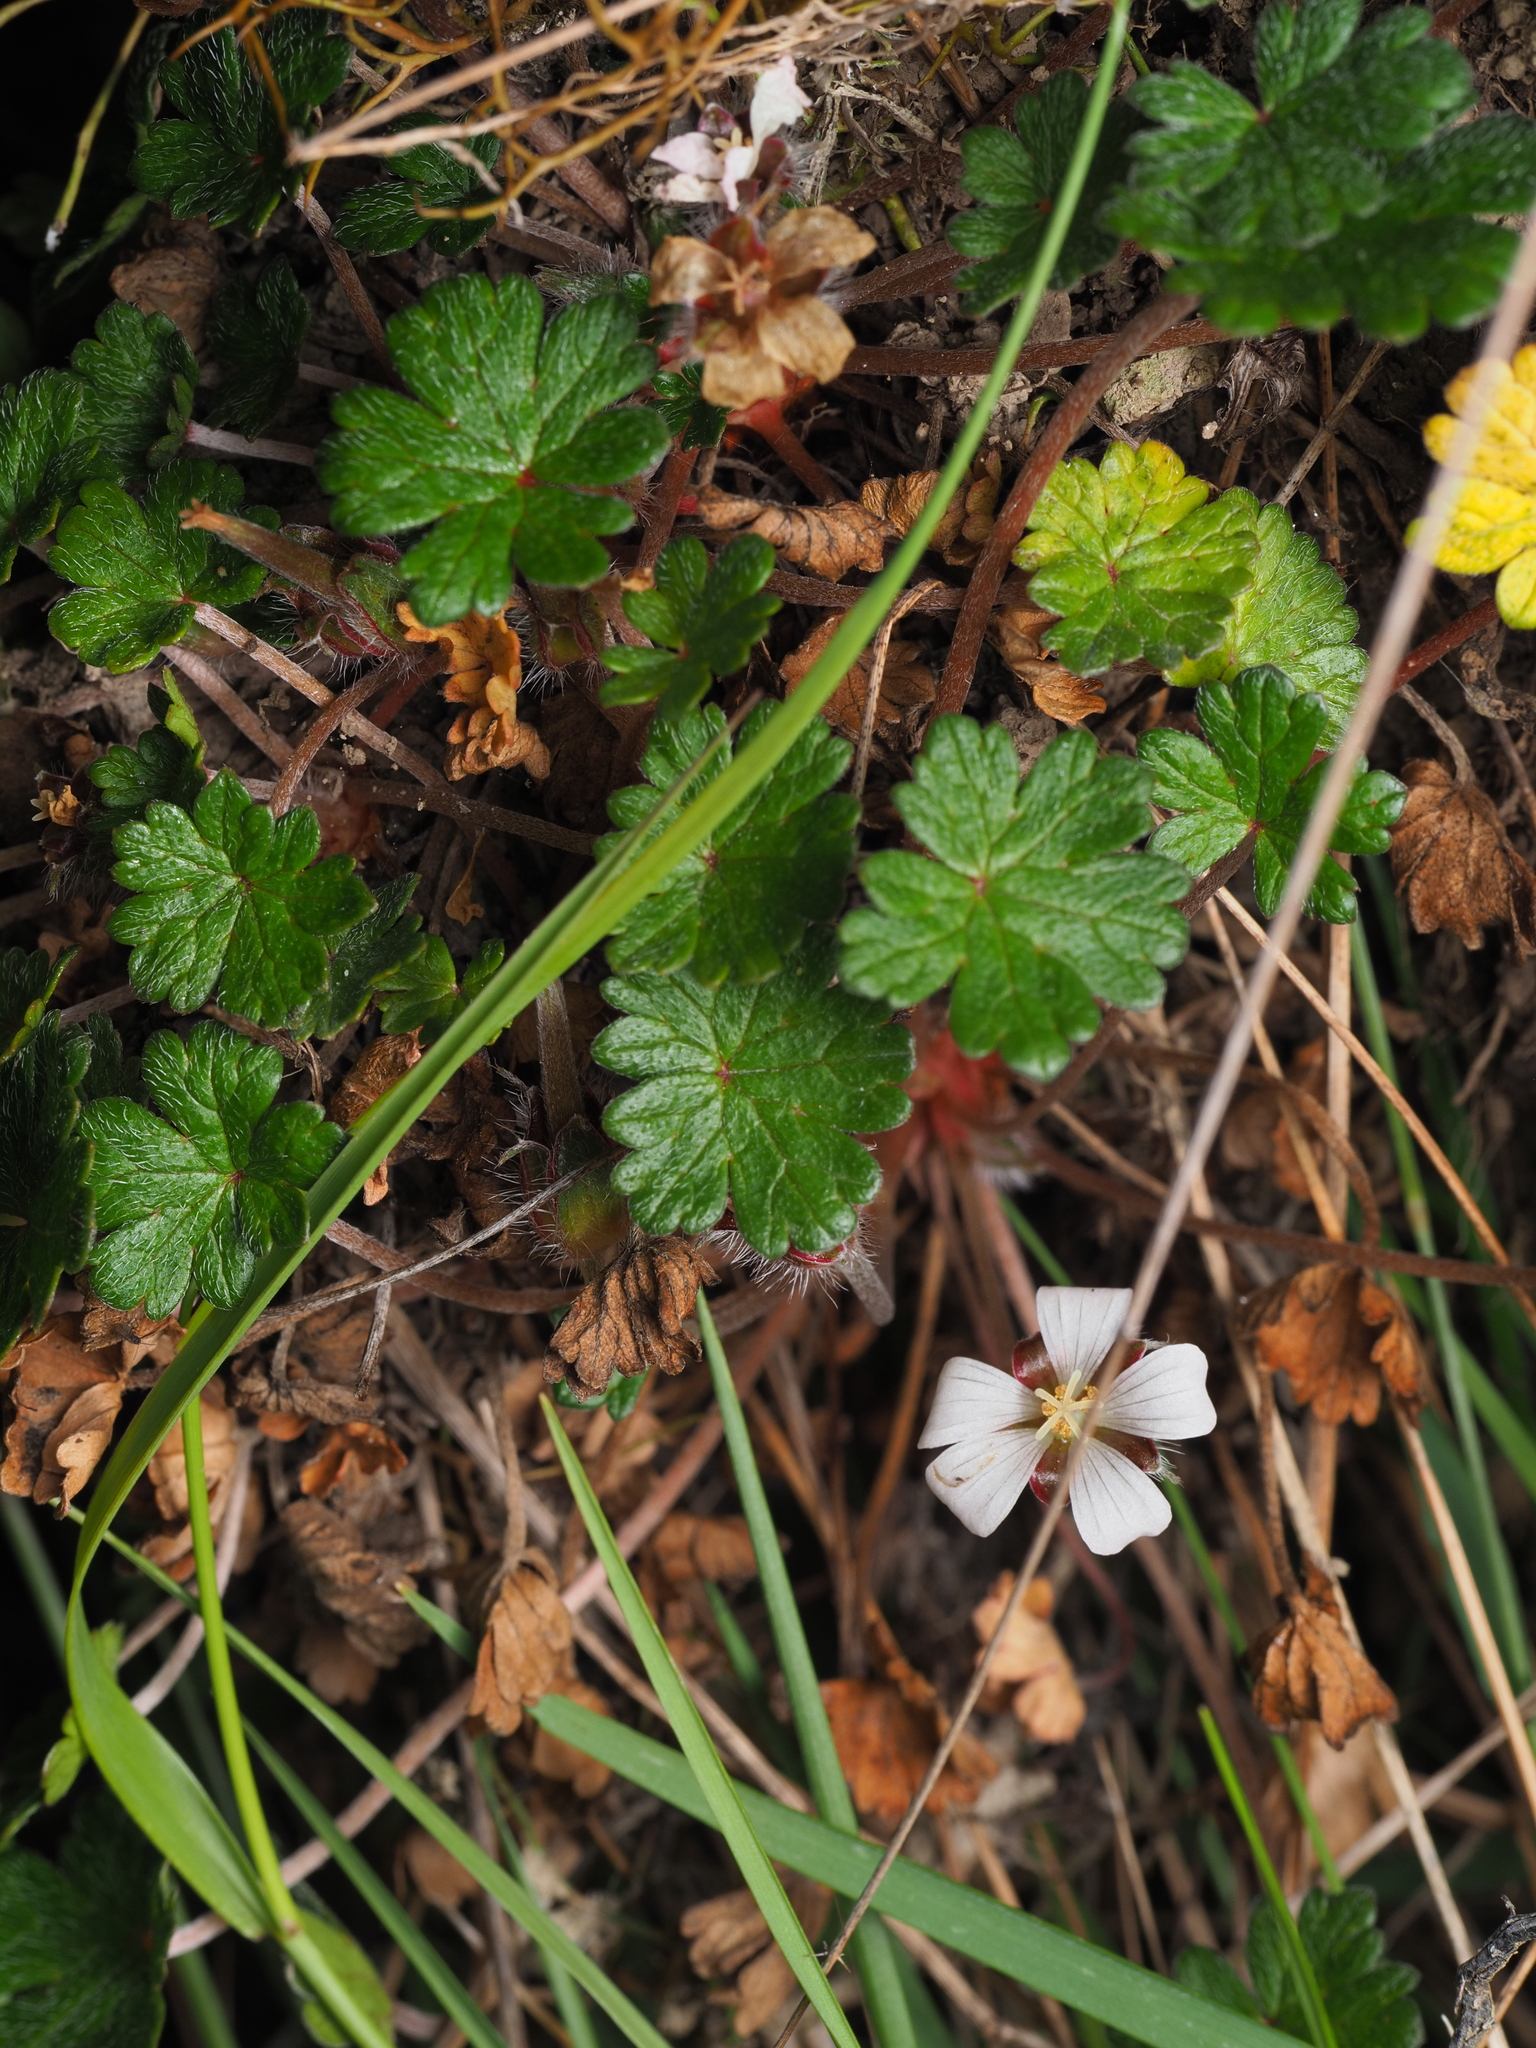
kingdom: Plantae
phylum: Tracheophyta
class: Magnoliopsida
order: Geraniales
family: Geraniaceae
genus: Geranium
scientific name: Geranium brevicaule
